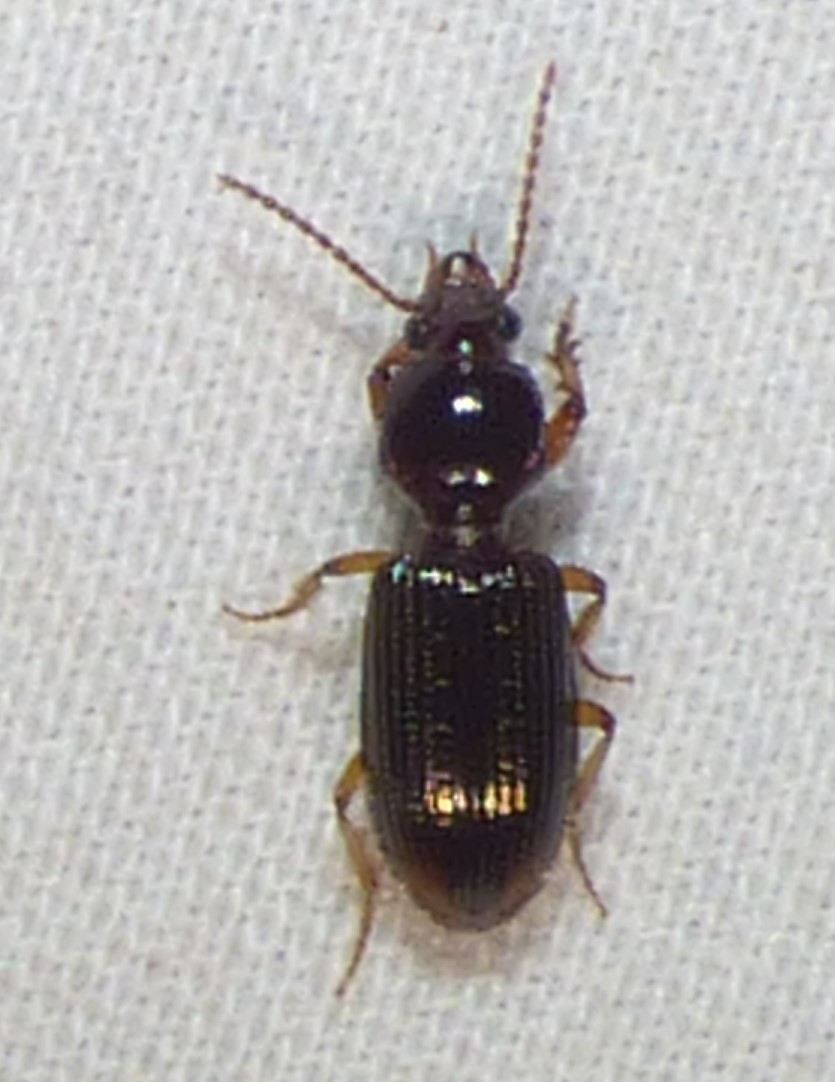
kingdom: Animalia
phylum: Arthropoda
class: Insecta
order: Coleoptera
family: Carabidae
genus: Aspidoglossa
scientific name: Aspidoglossa subangulata
